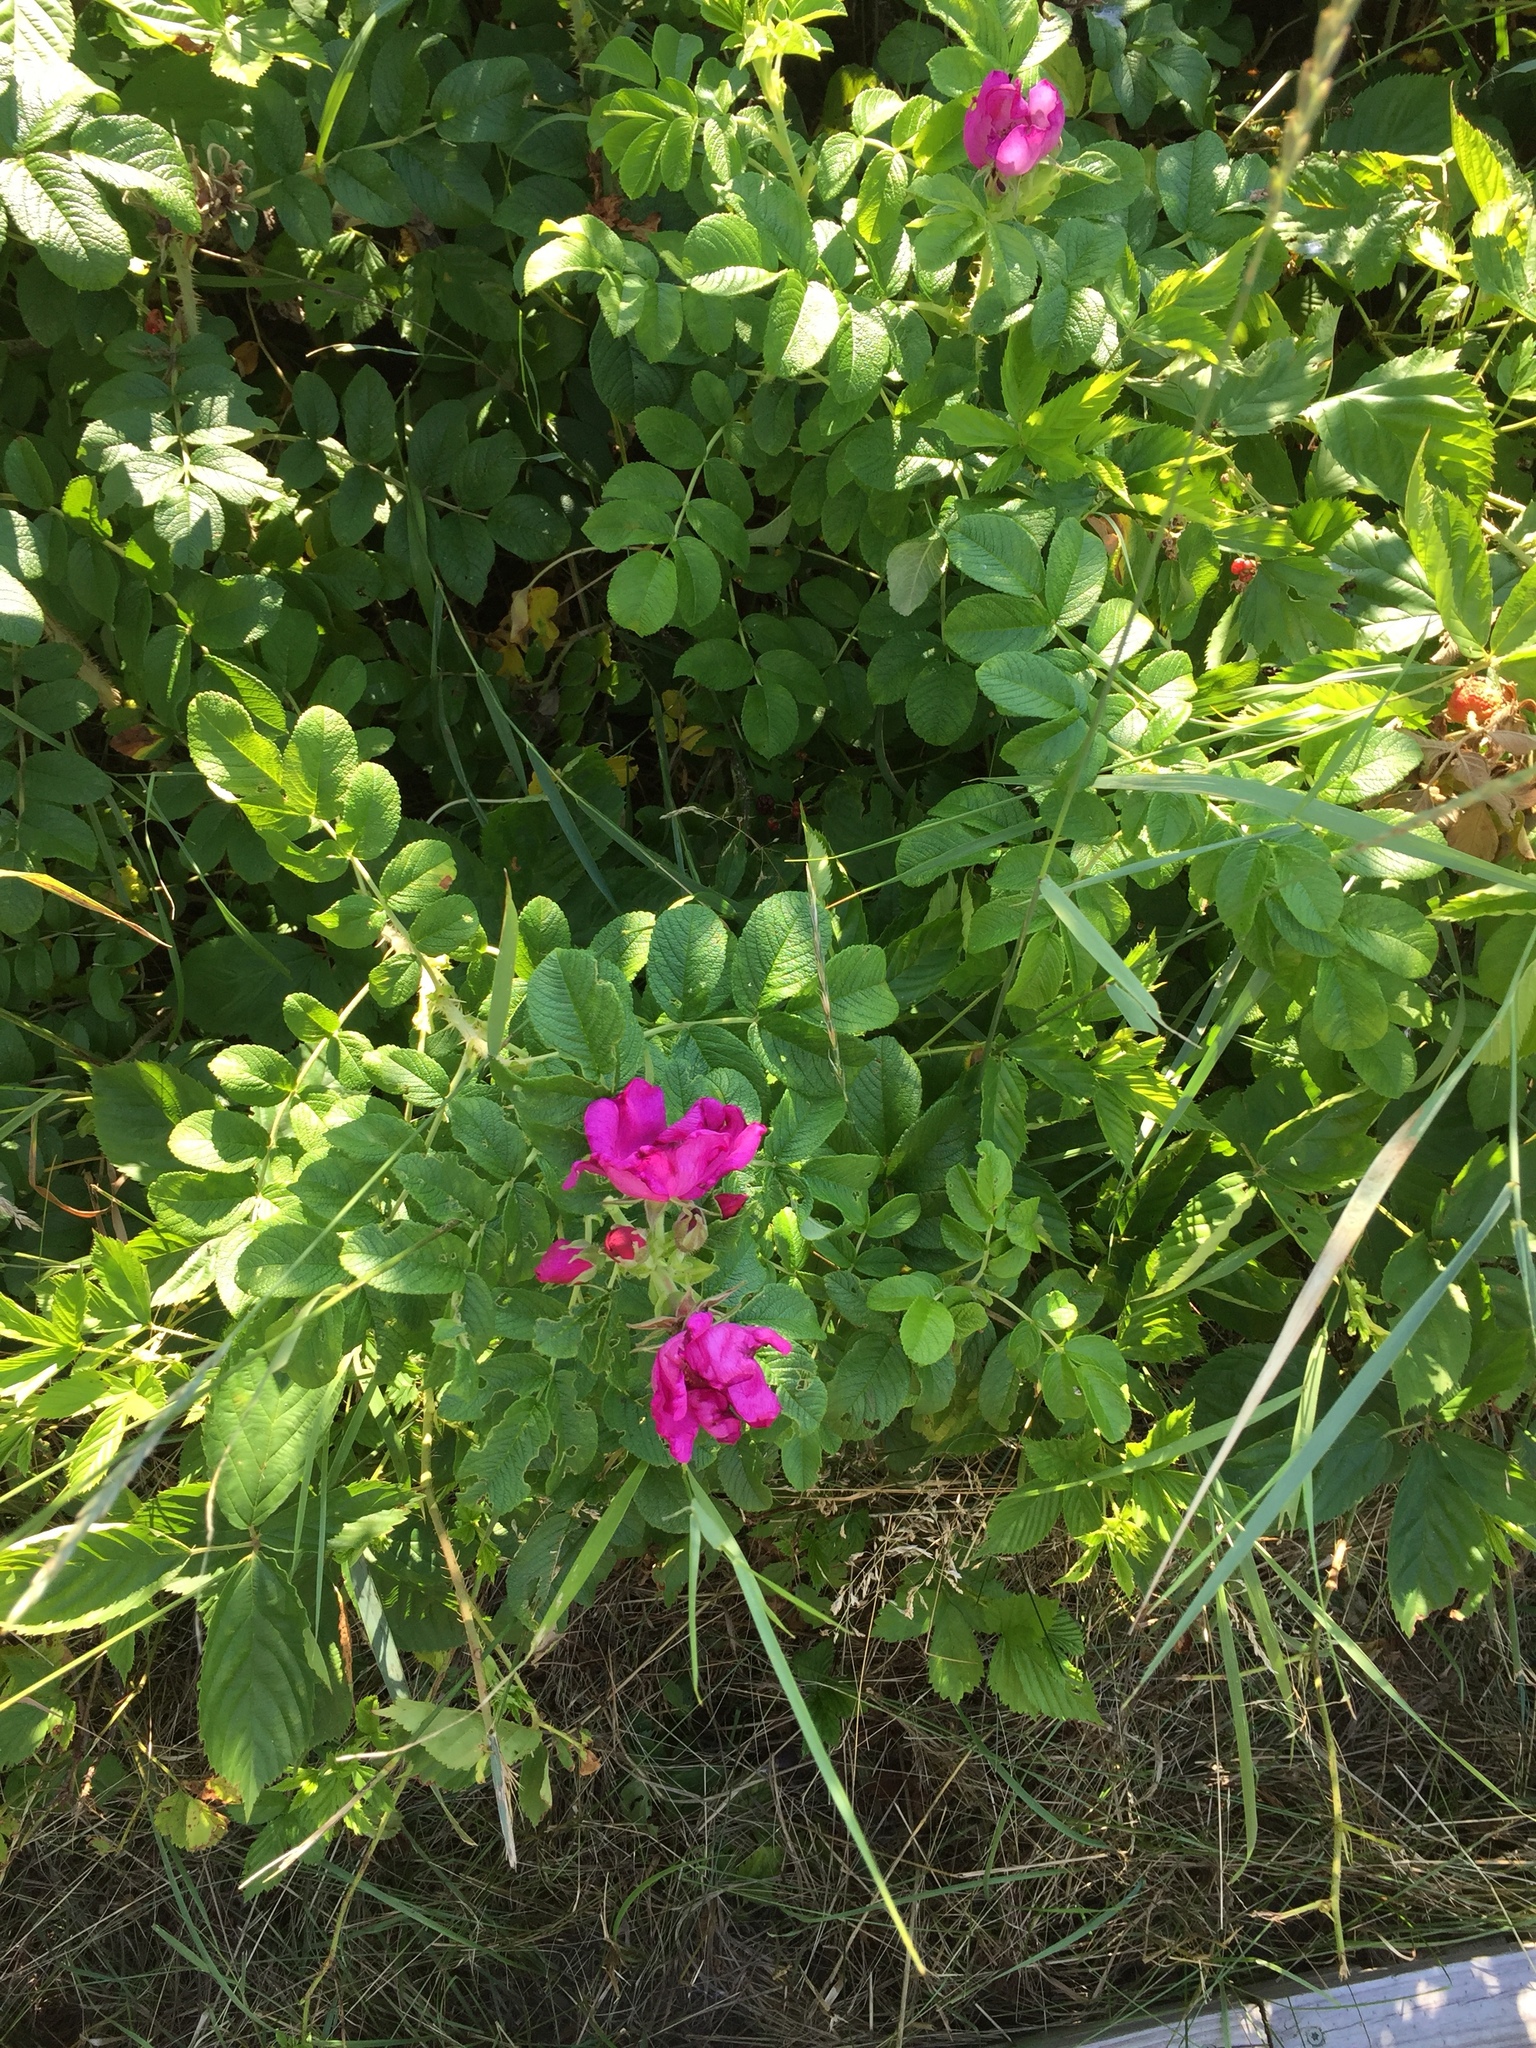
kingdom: Plantae
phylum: Tracheophyta
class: Magnoliopsida
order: Rosales
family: Rosaceae
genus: Rosa
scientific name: Rosa rugosa
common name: Japanese rose
